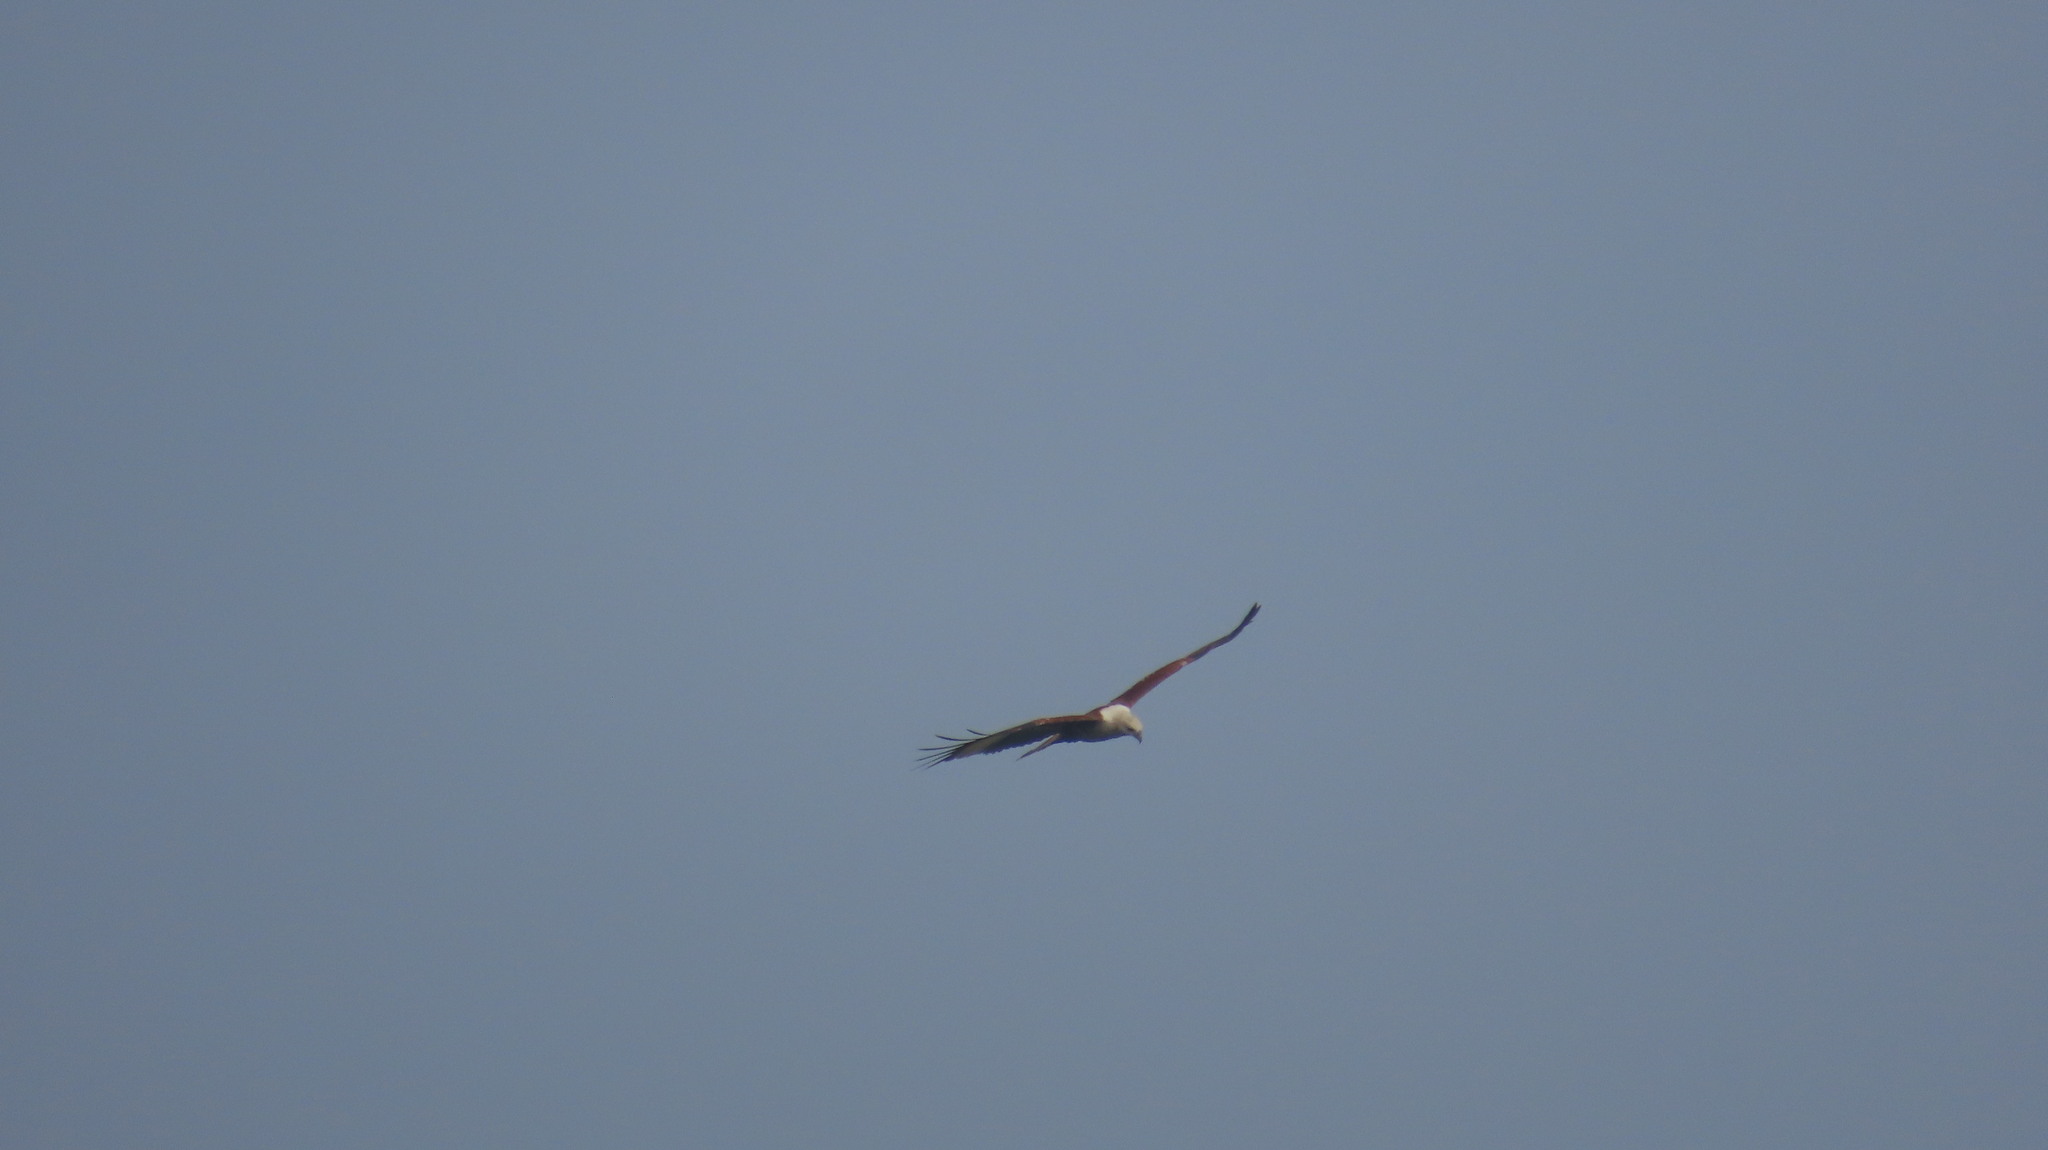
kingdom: Animalia
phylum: Chordata
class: Aves
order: Accipitriformes
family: Accipitridae
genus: Haliastur
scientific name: Haliastur indus
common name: Brahminy kite
